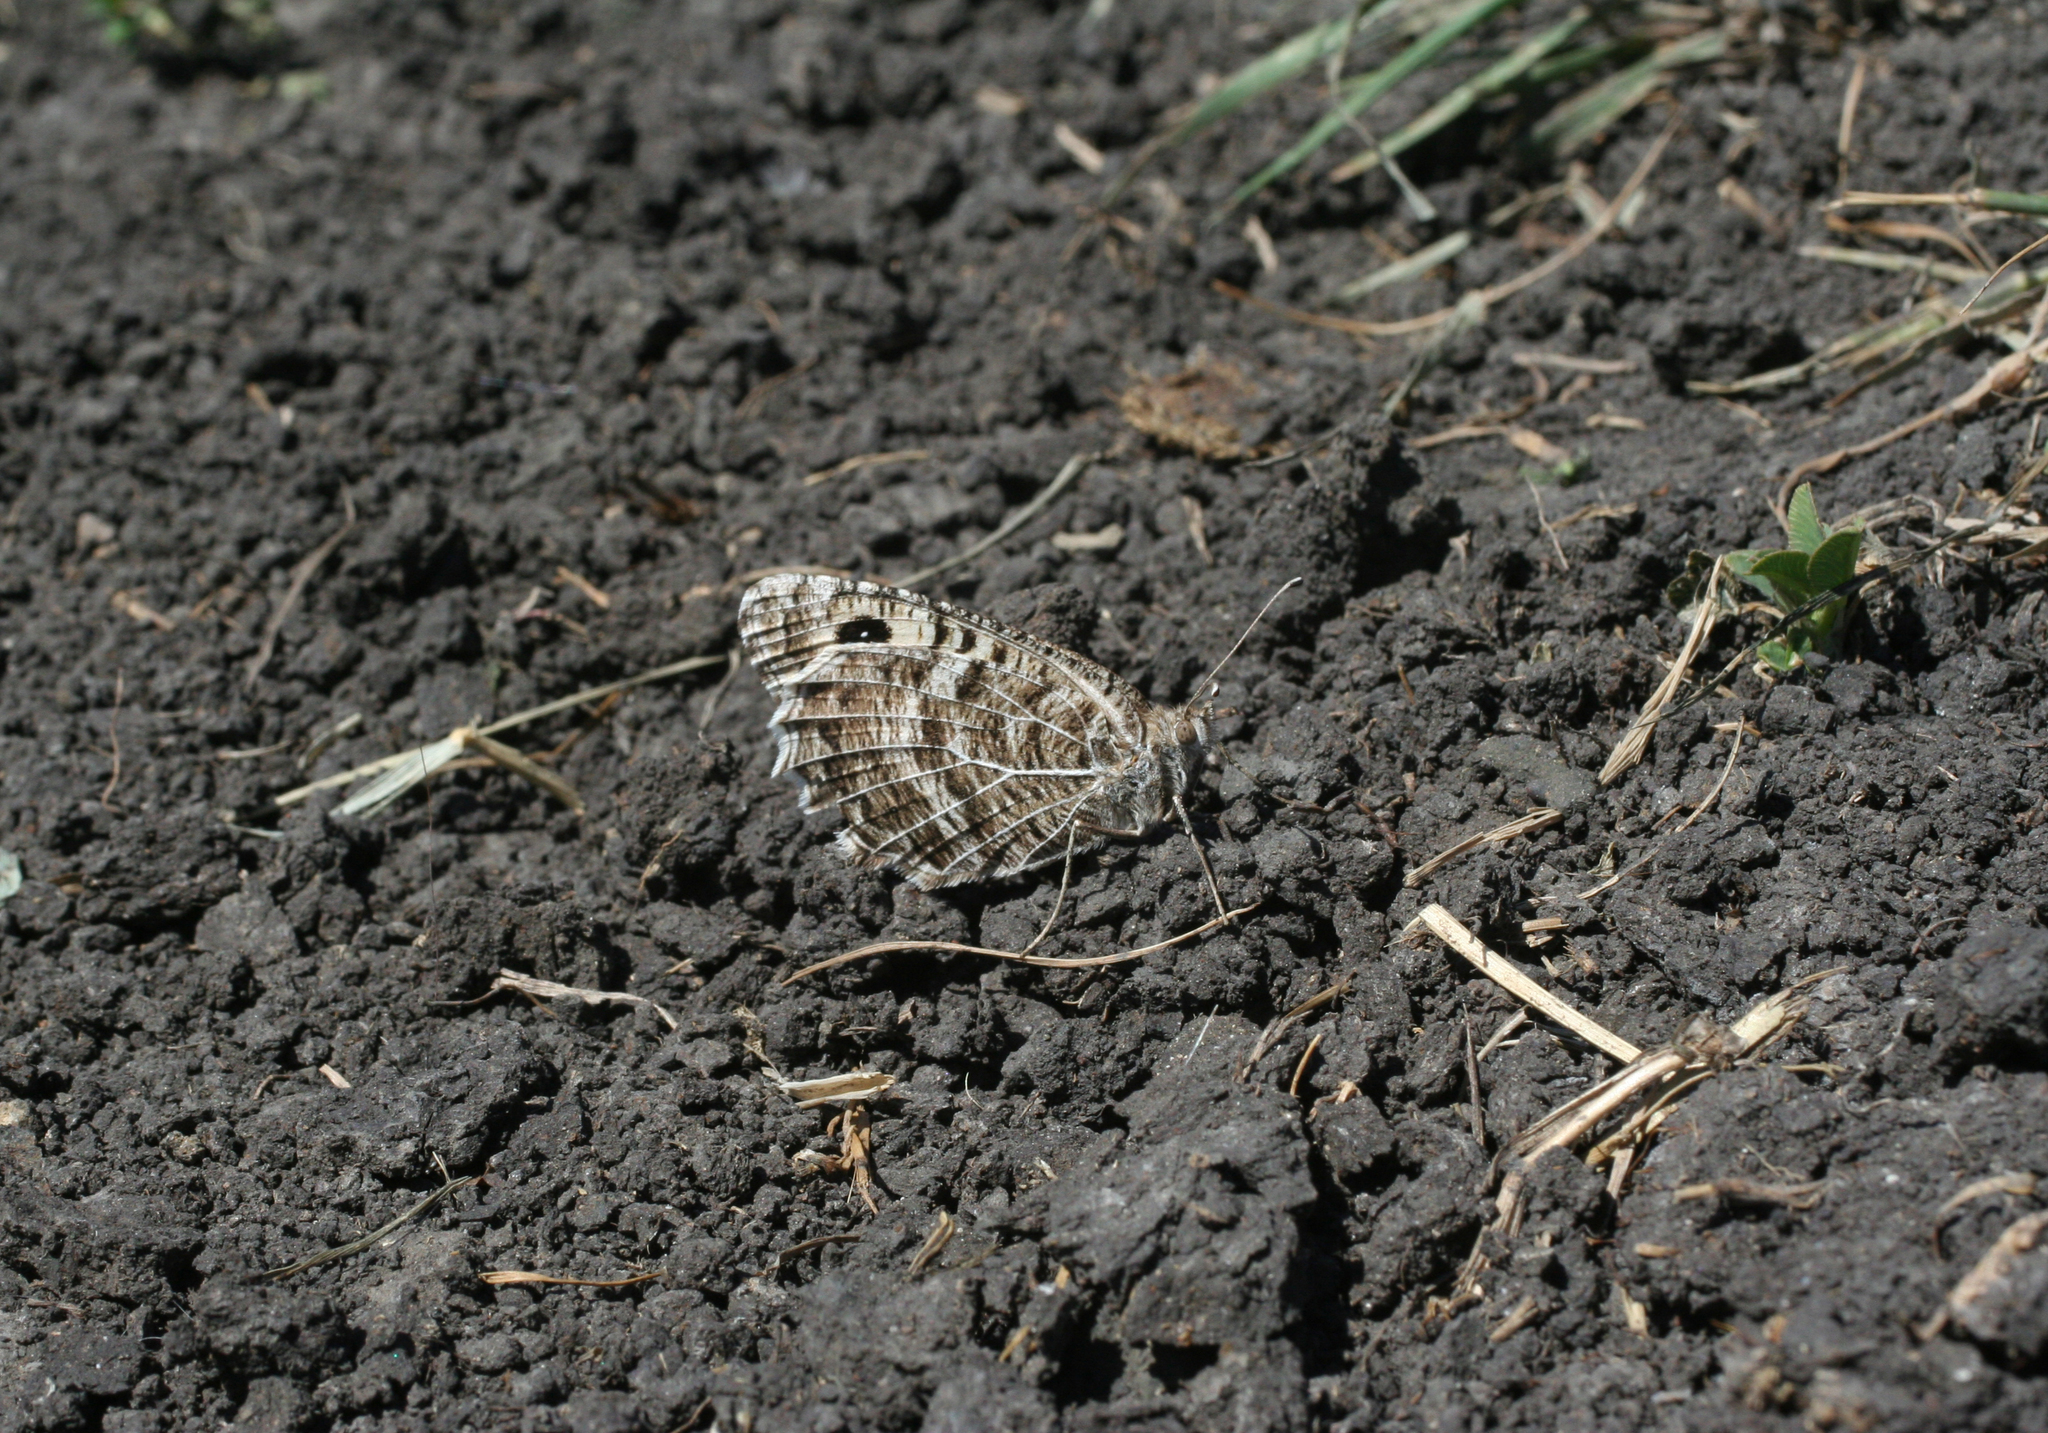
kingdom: Animalia
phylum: Arthropoda
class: Insecta
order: Lepidoptera
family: Nymphalidae
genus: Pseudochazara
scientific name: Pseudochazara hippolyte
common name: Nevada grayling
